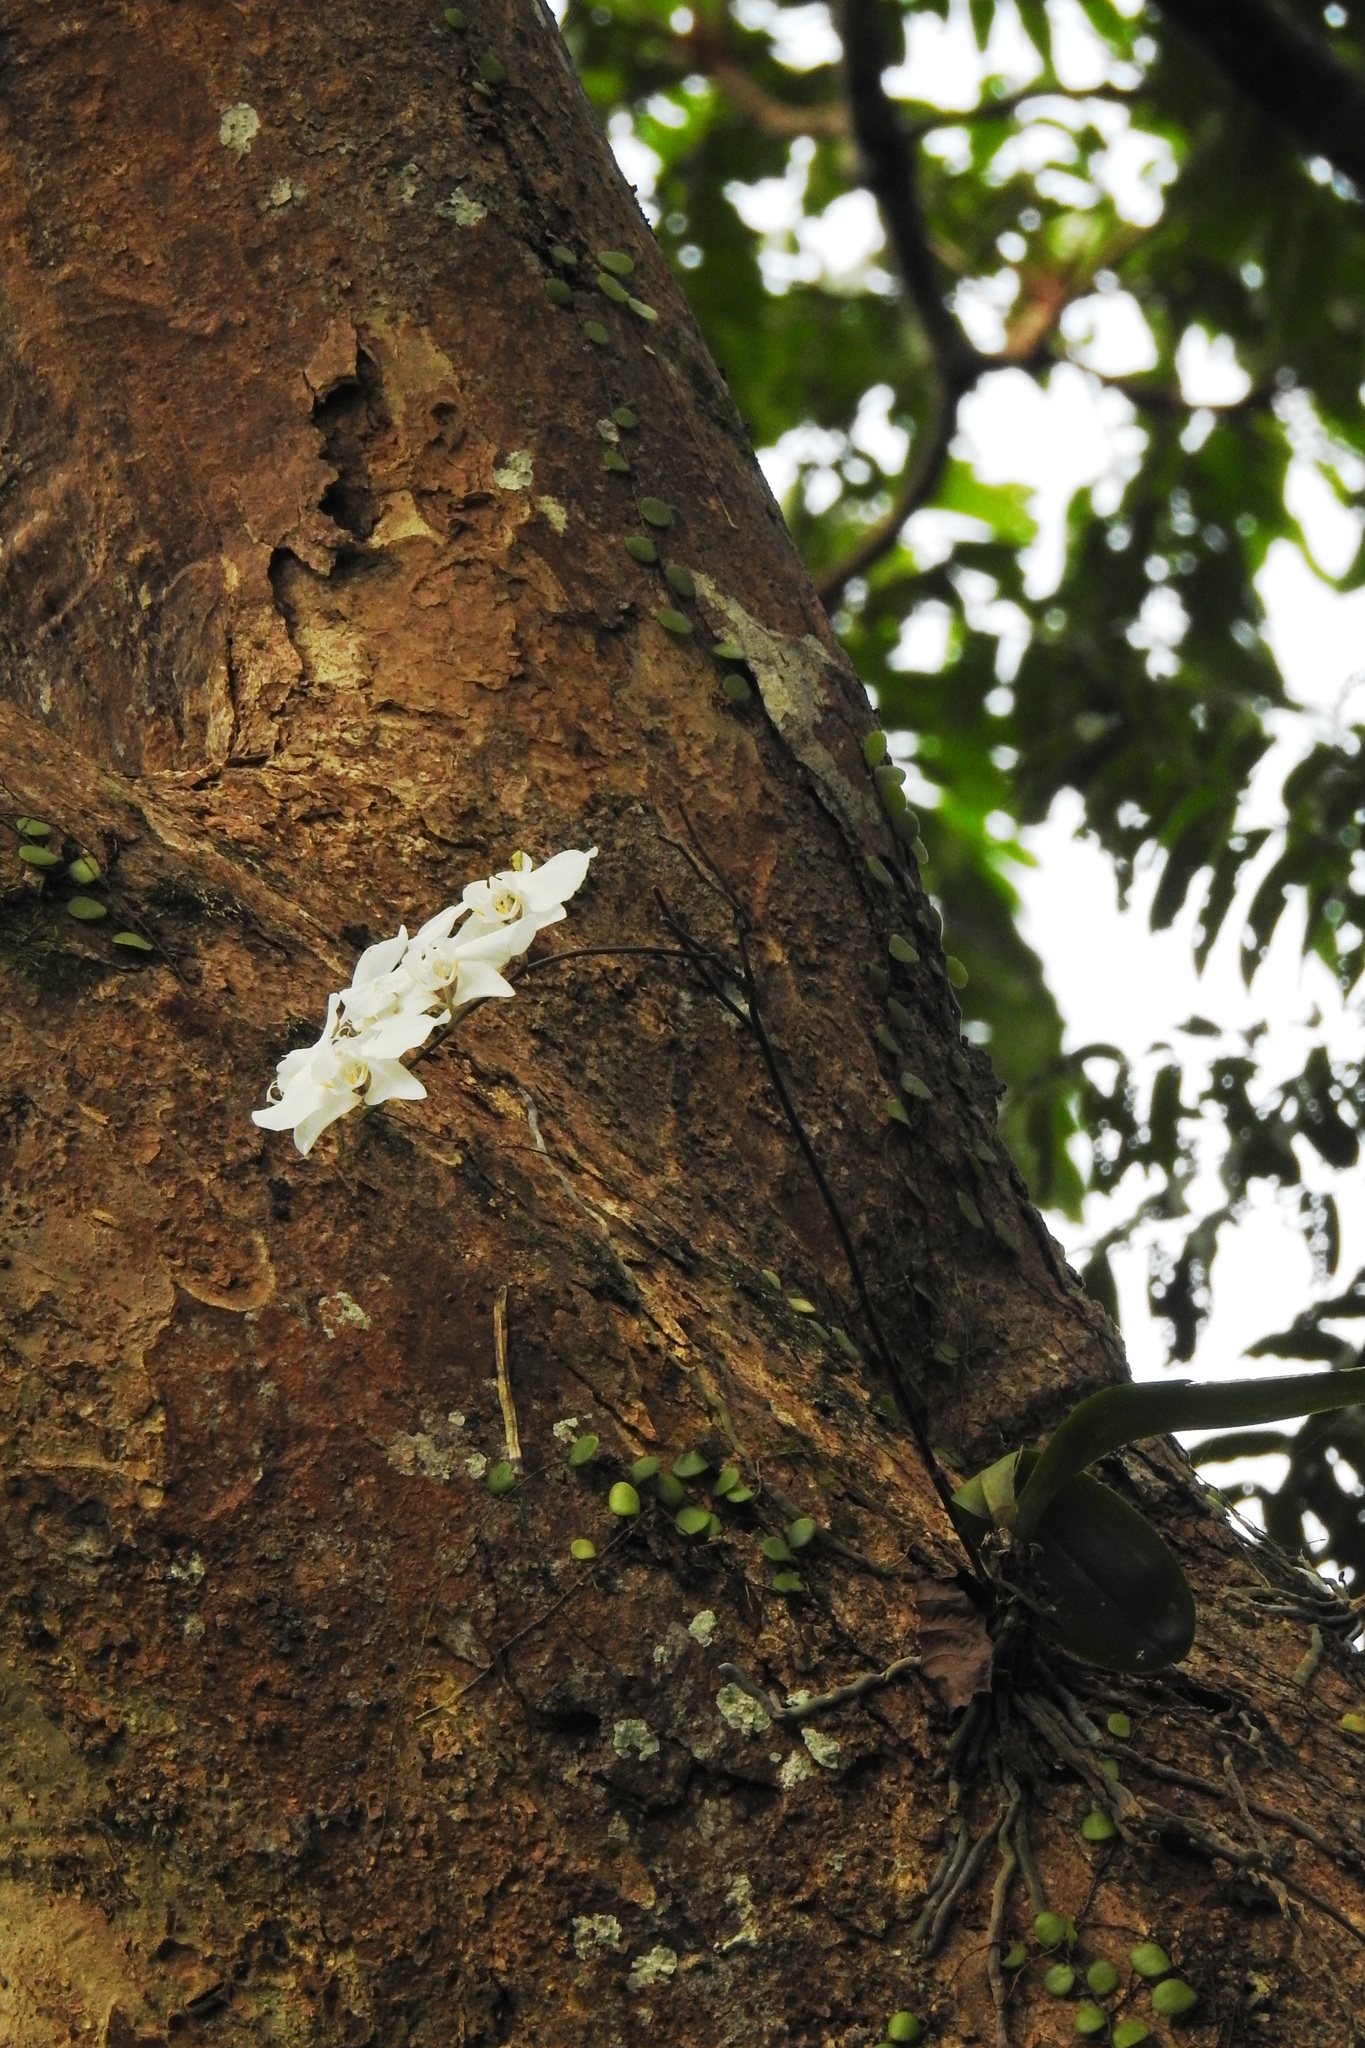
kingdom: Plantae
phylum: Tracheophyta
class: Liliopsida
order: Asparagales
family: Orchidaceae
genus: Phalaenopsis
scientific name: Phalaenopsis aphrodite
